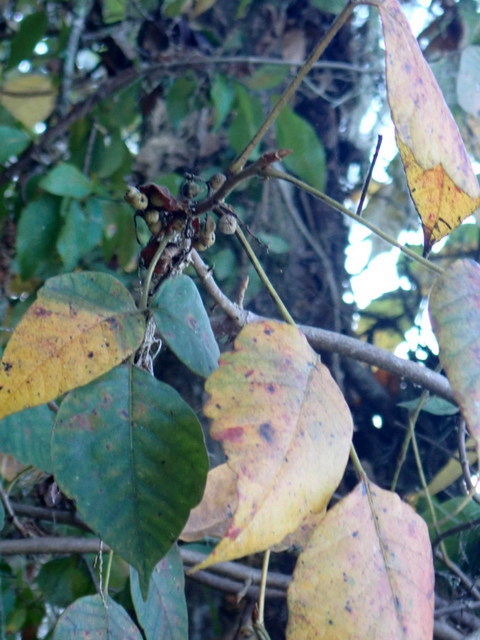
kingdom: Plantae
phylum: Tracheophyta
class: Magnoliopsida
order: Sapindales
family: Anacardiaceae
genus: Toxicodendron
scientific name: Toxicodendron radicans
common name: Poison ivy
